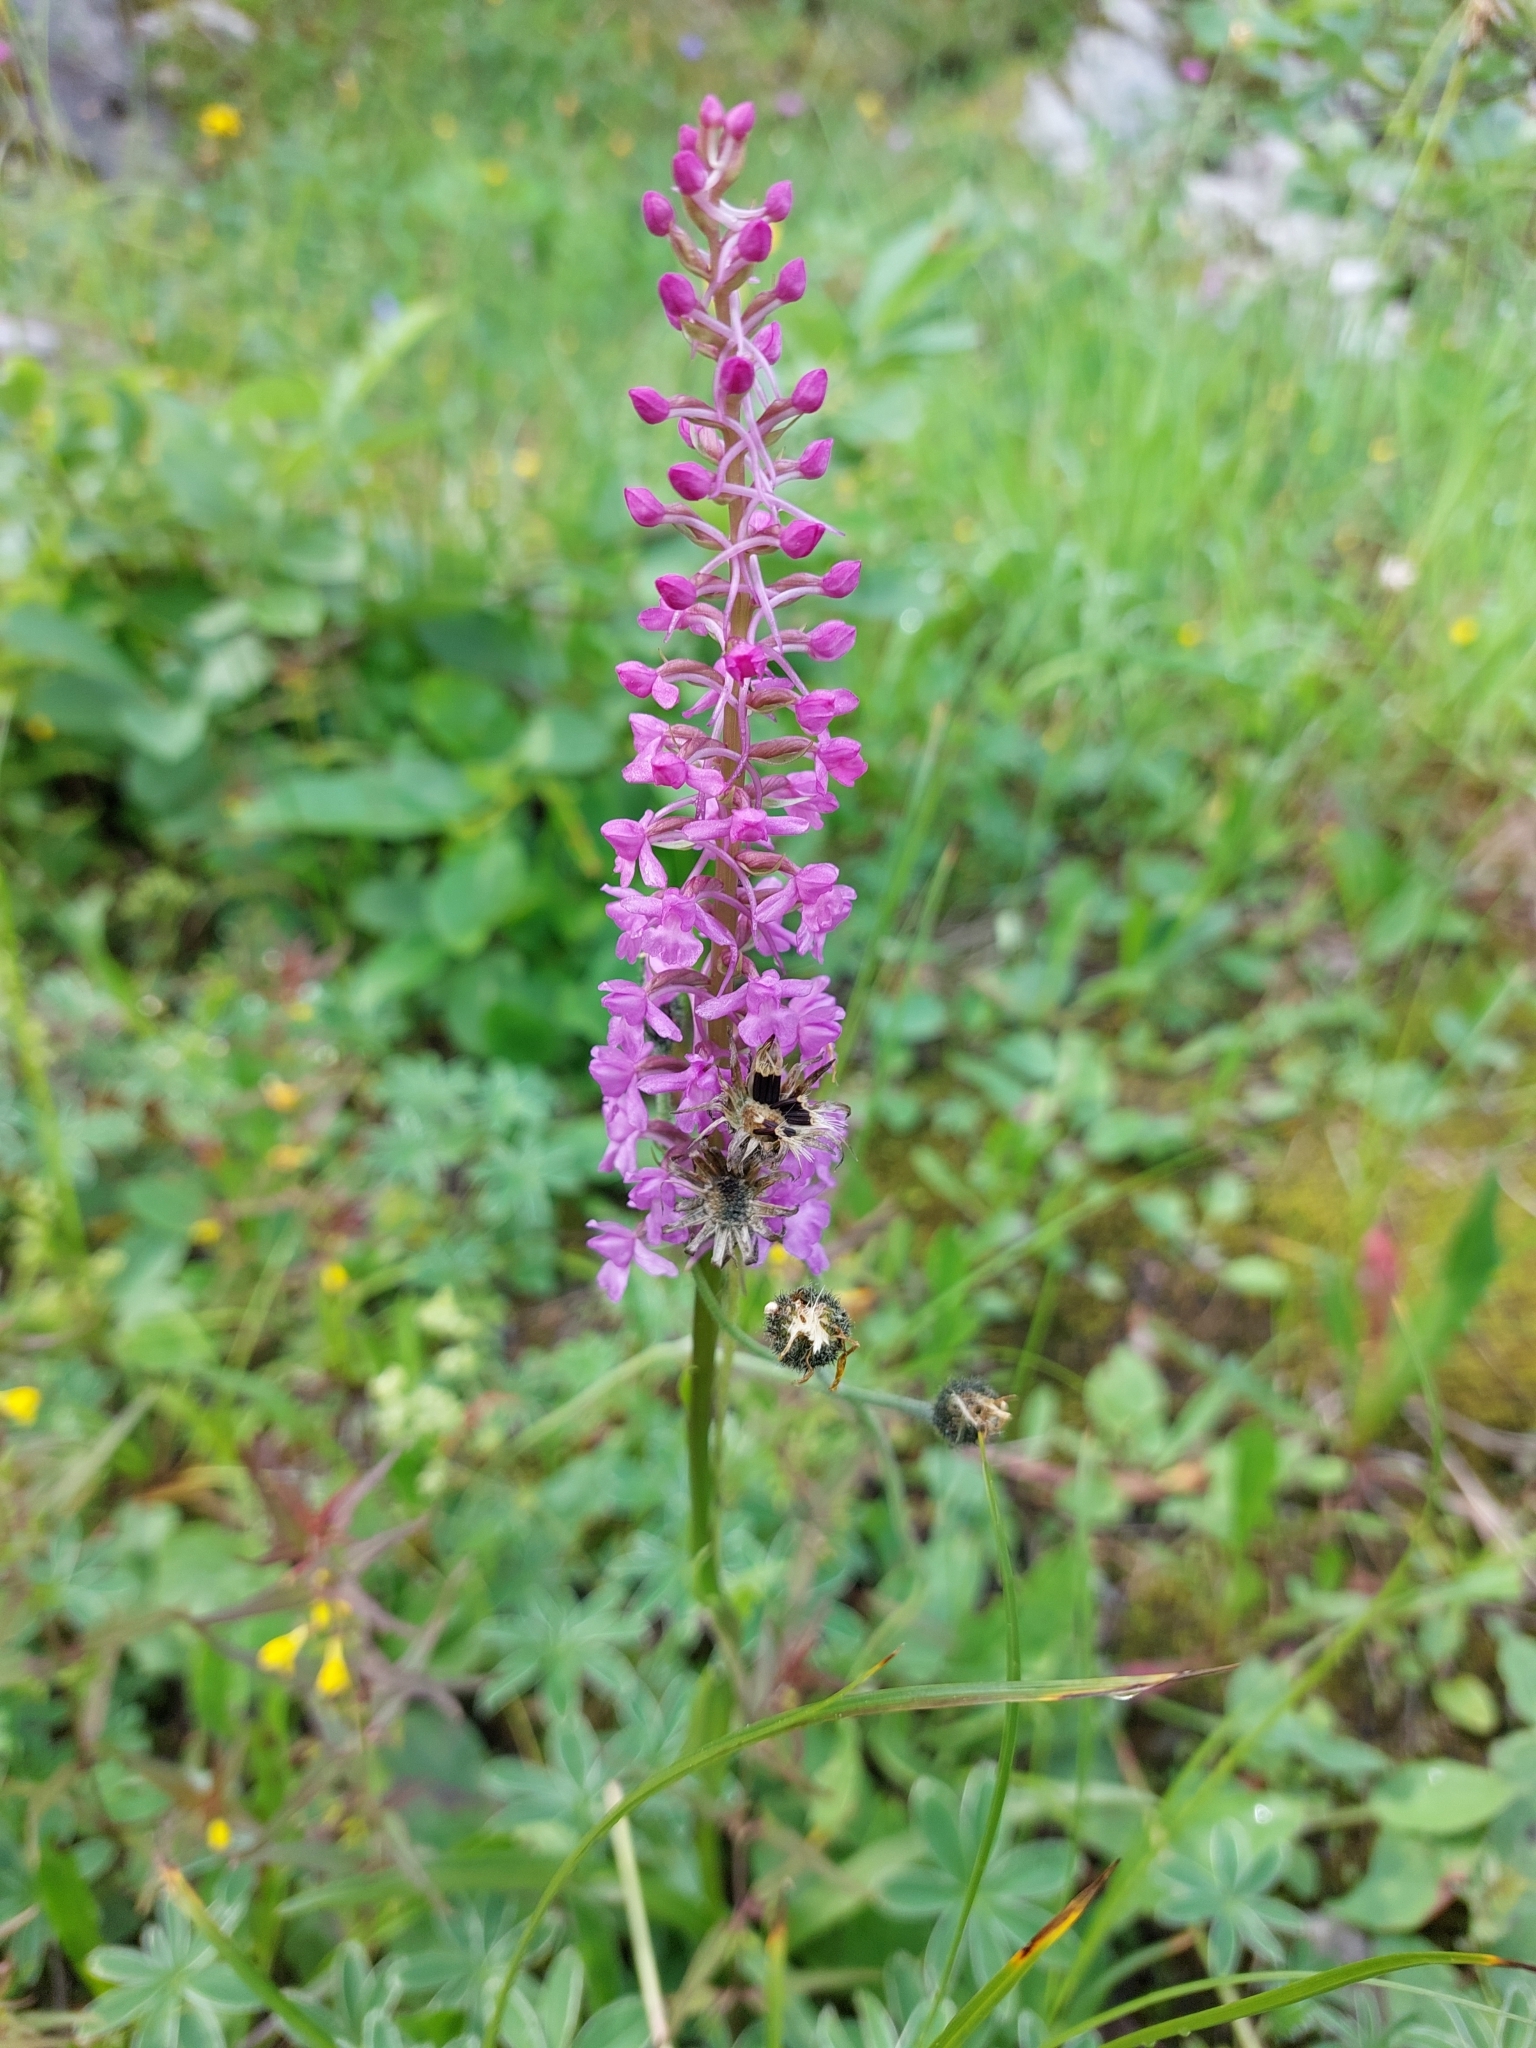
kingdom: Plantae
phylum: Tracheophyta
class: Liliopsida
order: Asparagales
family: Orchidaceae
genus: Gymnadenia
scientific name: Gymnadenia conopsea
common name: Fragrant orchid
